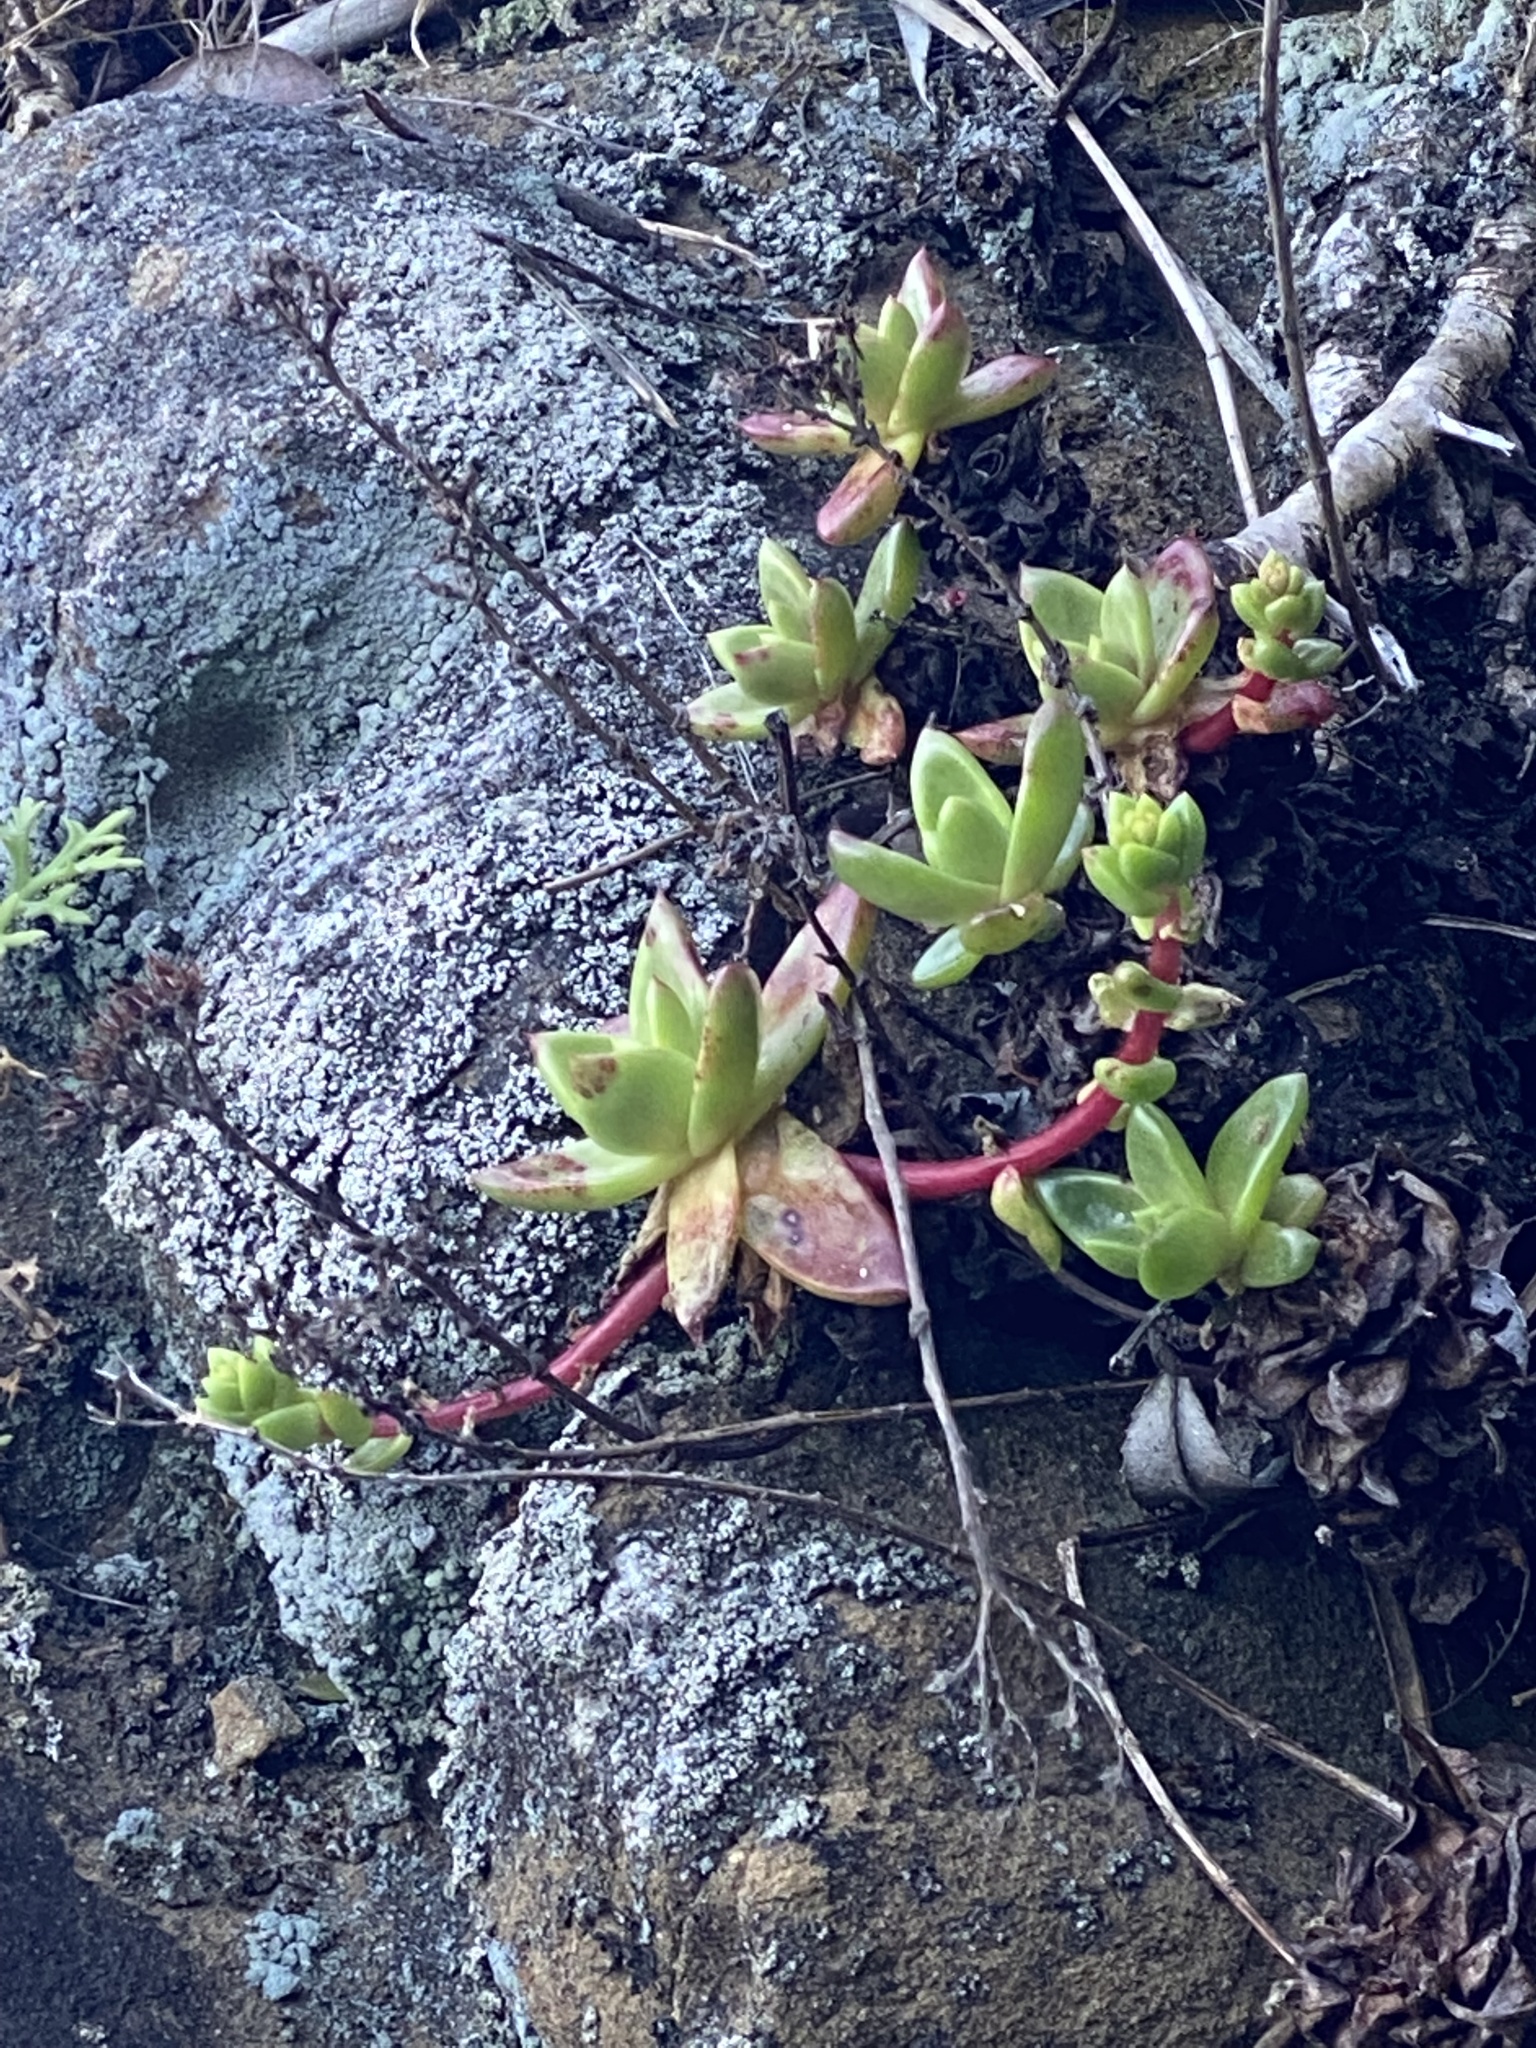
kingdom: Plantae
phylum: Tracheophyta
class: Magnoliopsida
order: Saxifragales
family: Crassulaceae
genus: Dudleya
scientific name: Dudleya farinosa
